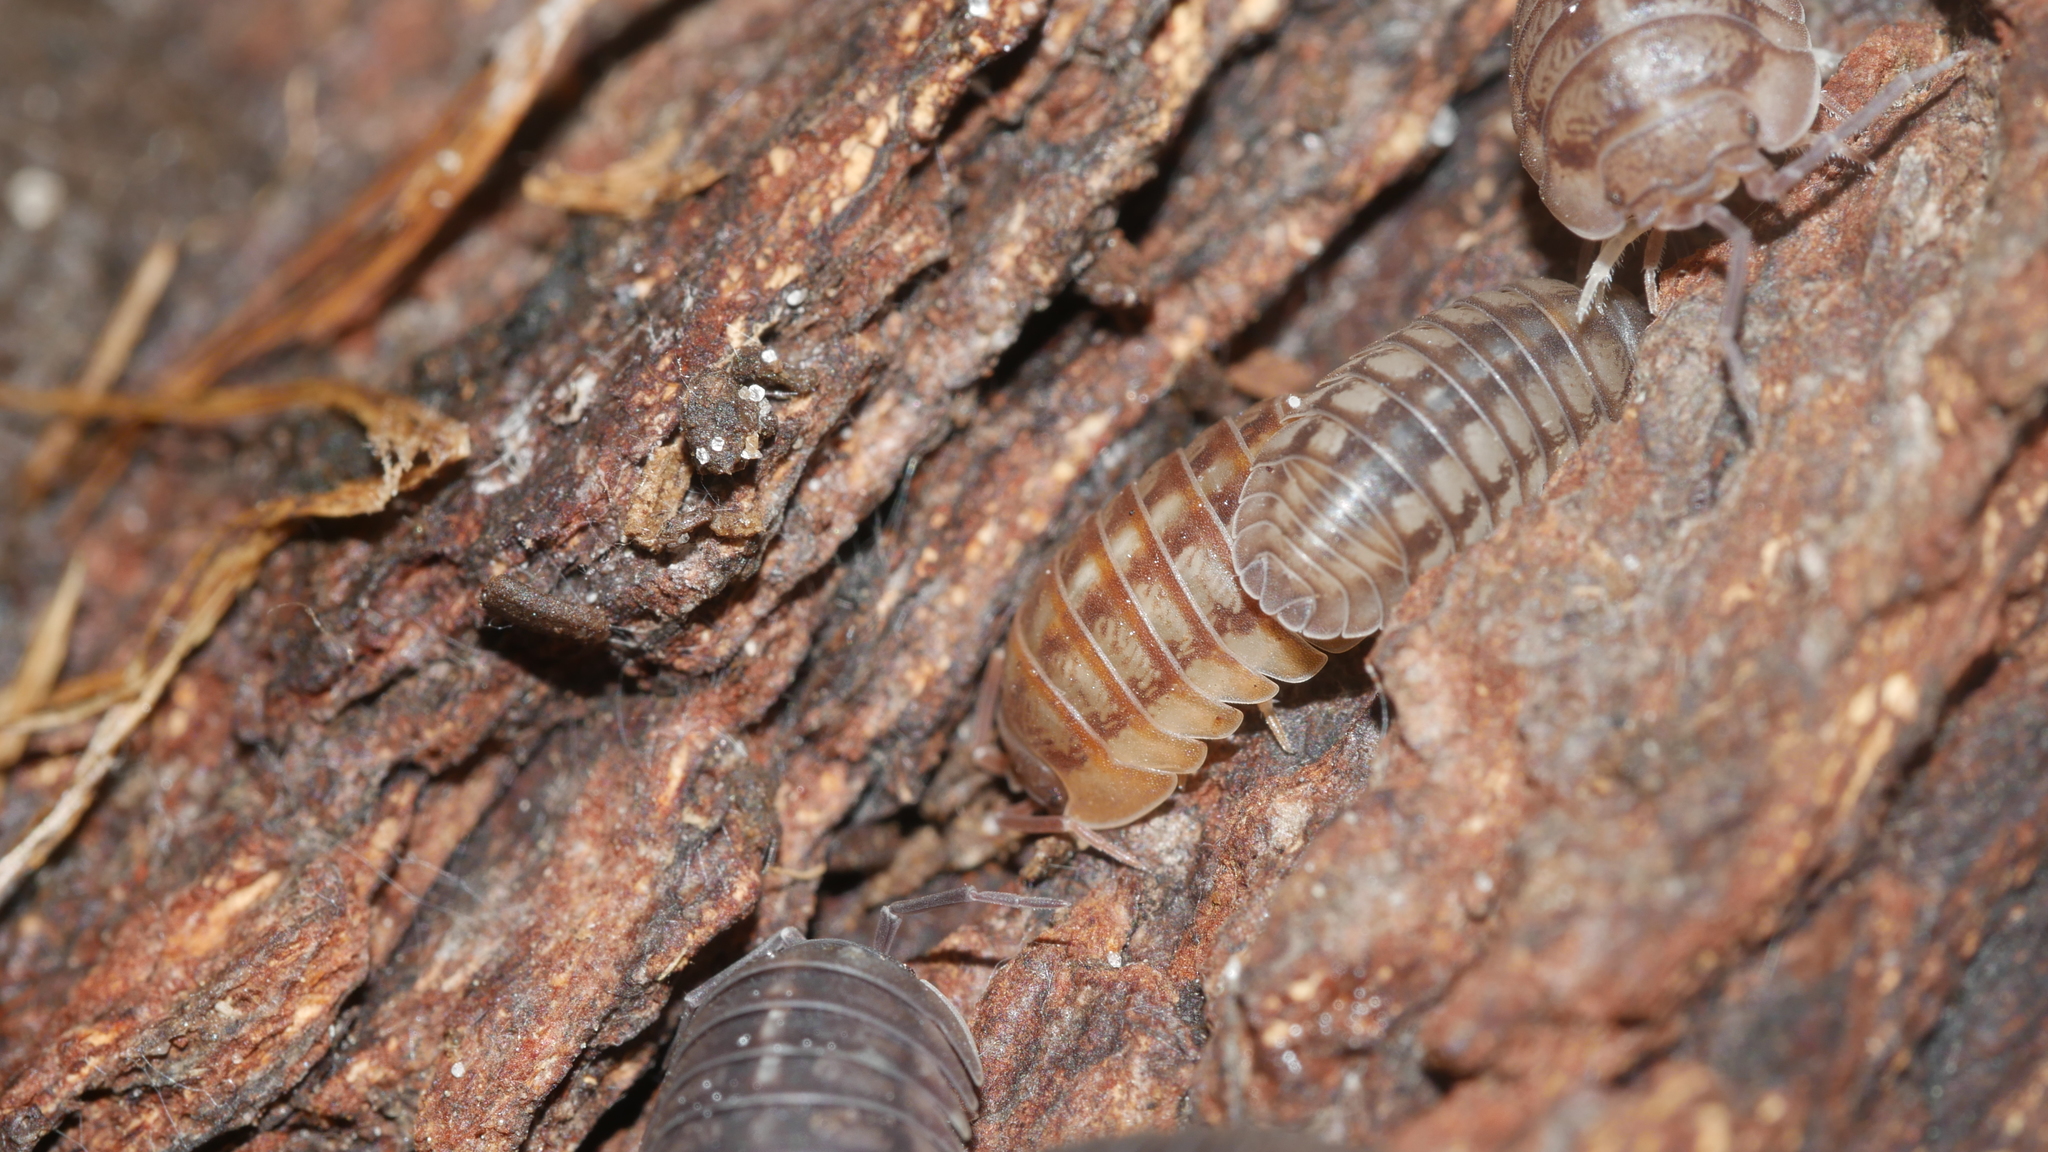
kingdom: Animalia
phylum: Arthropoda
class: Malacostraca
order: Isopoda
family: Armadillidiidae
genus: Armadillidium
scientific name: Armadillidium nasatum
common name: Isopod
